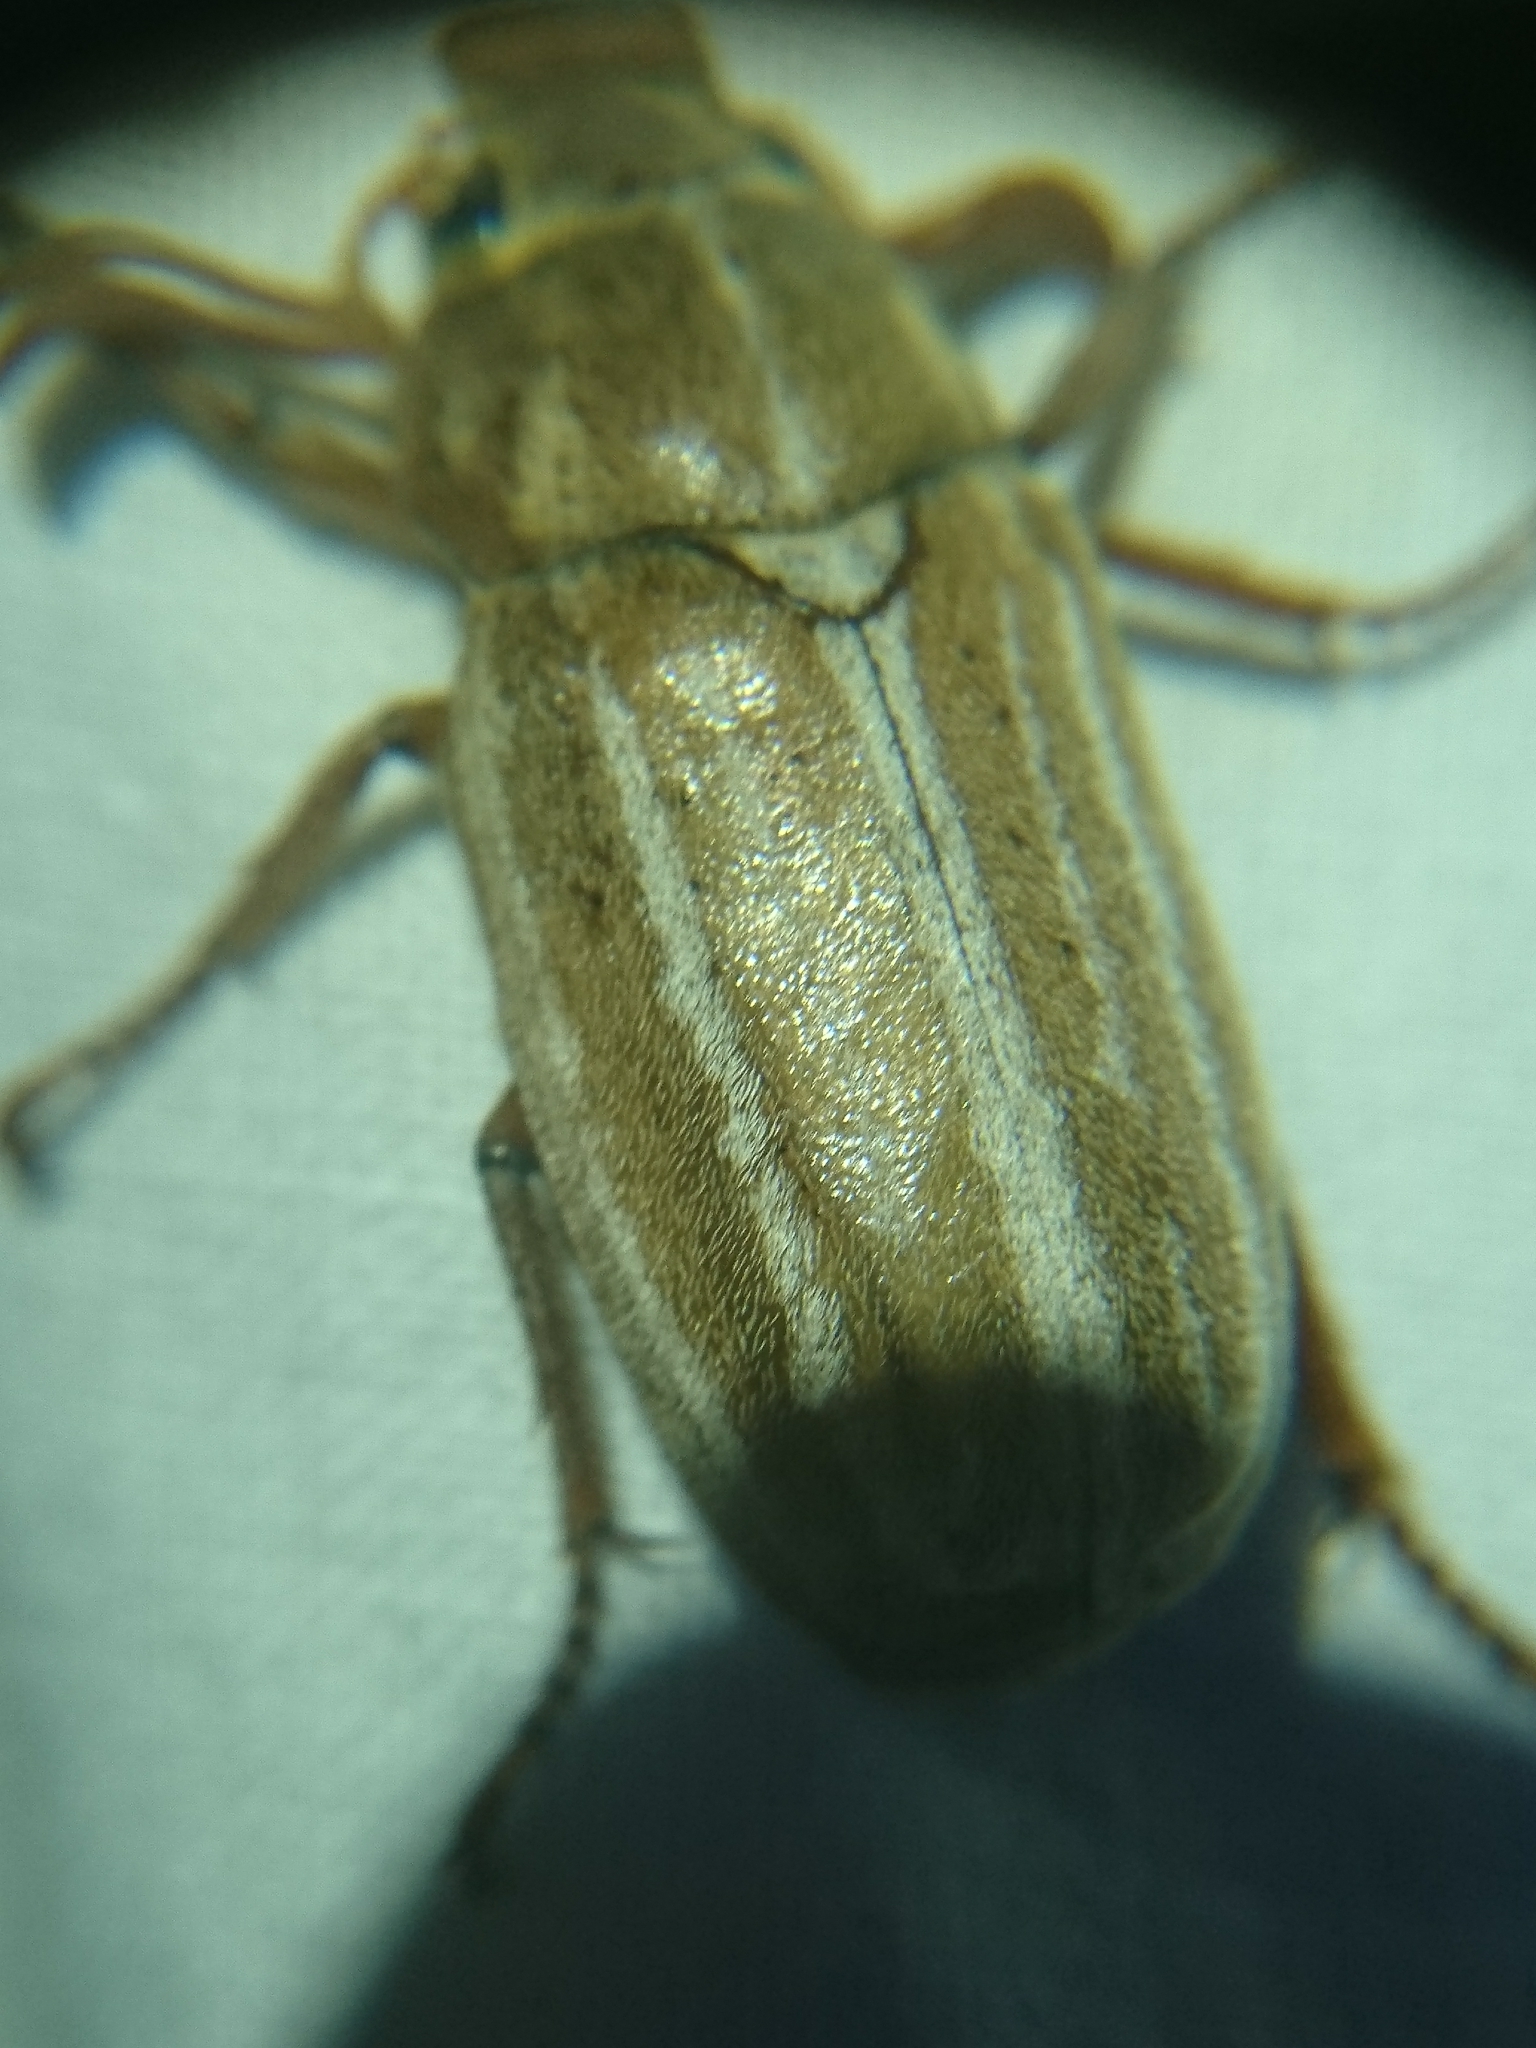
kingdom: Animalia
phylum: Arthropoda
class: Insecta
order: Coleoptera
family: Scarabaeidae
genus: Polyphylla
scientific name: Polyphylla occidentalis
